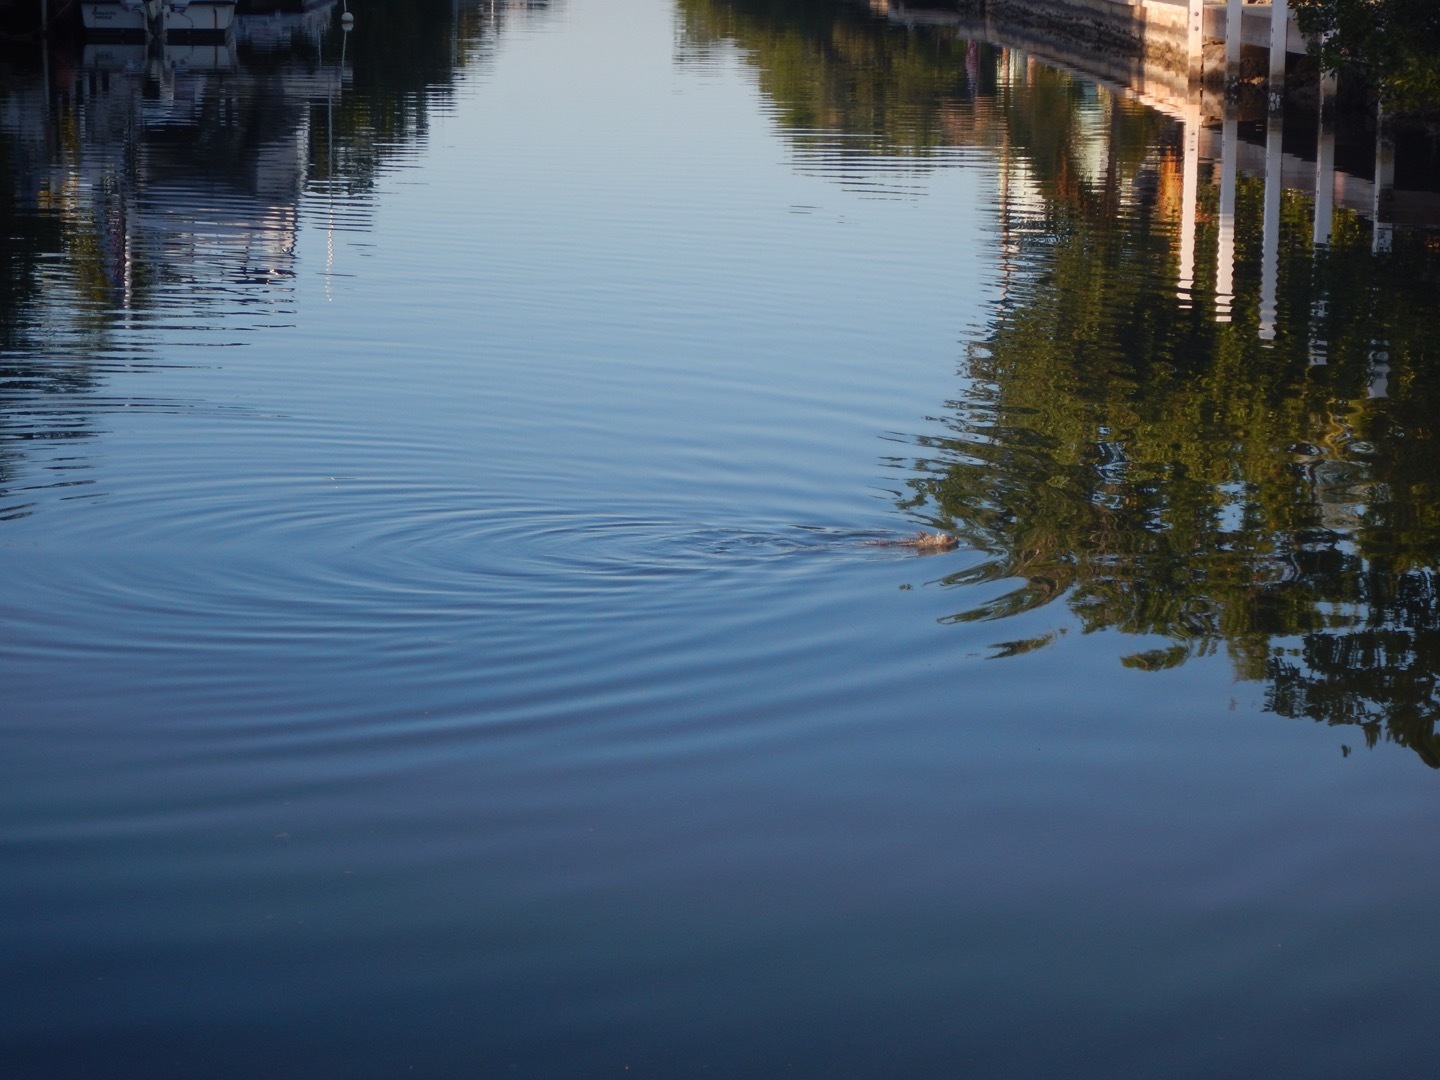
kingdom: Animalia
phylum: Chordata
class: Squamata
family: Iguanidae
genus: Iguana
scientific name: Iguana iguana
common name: Green iguana
